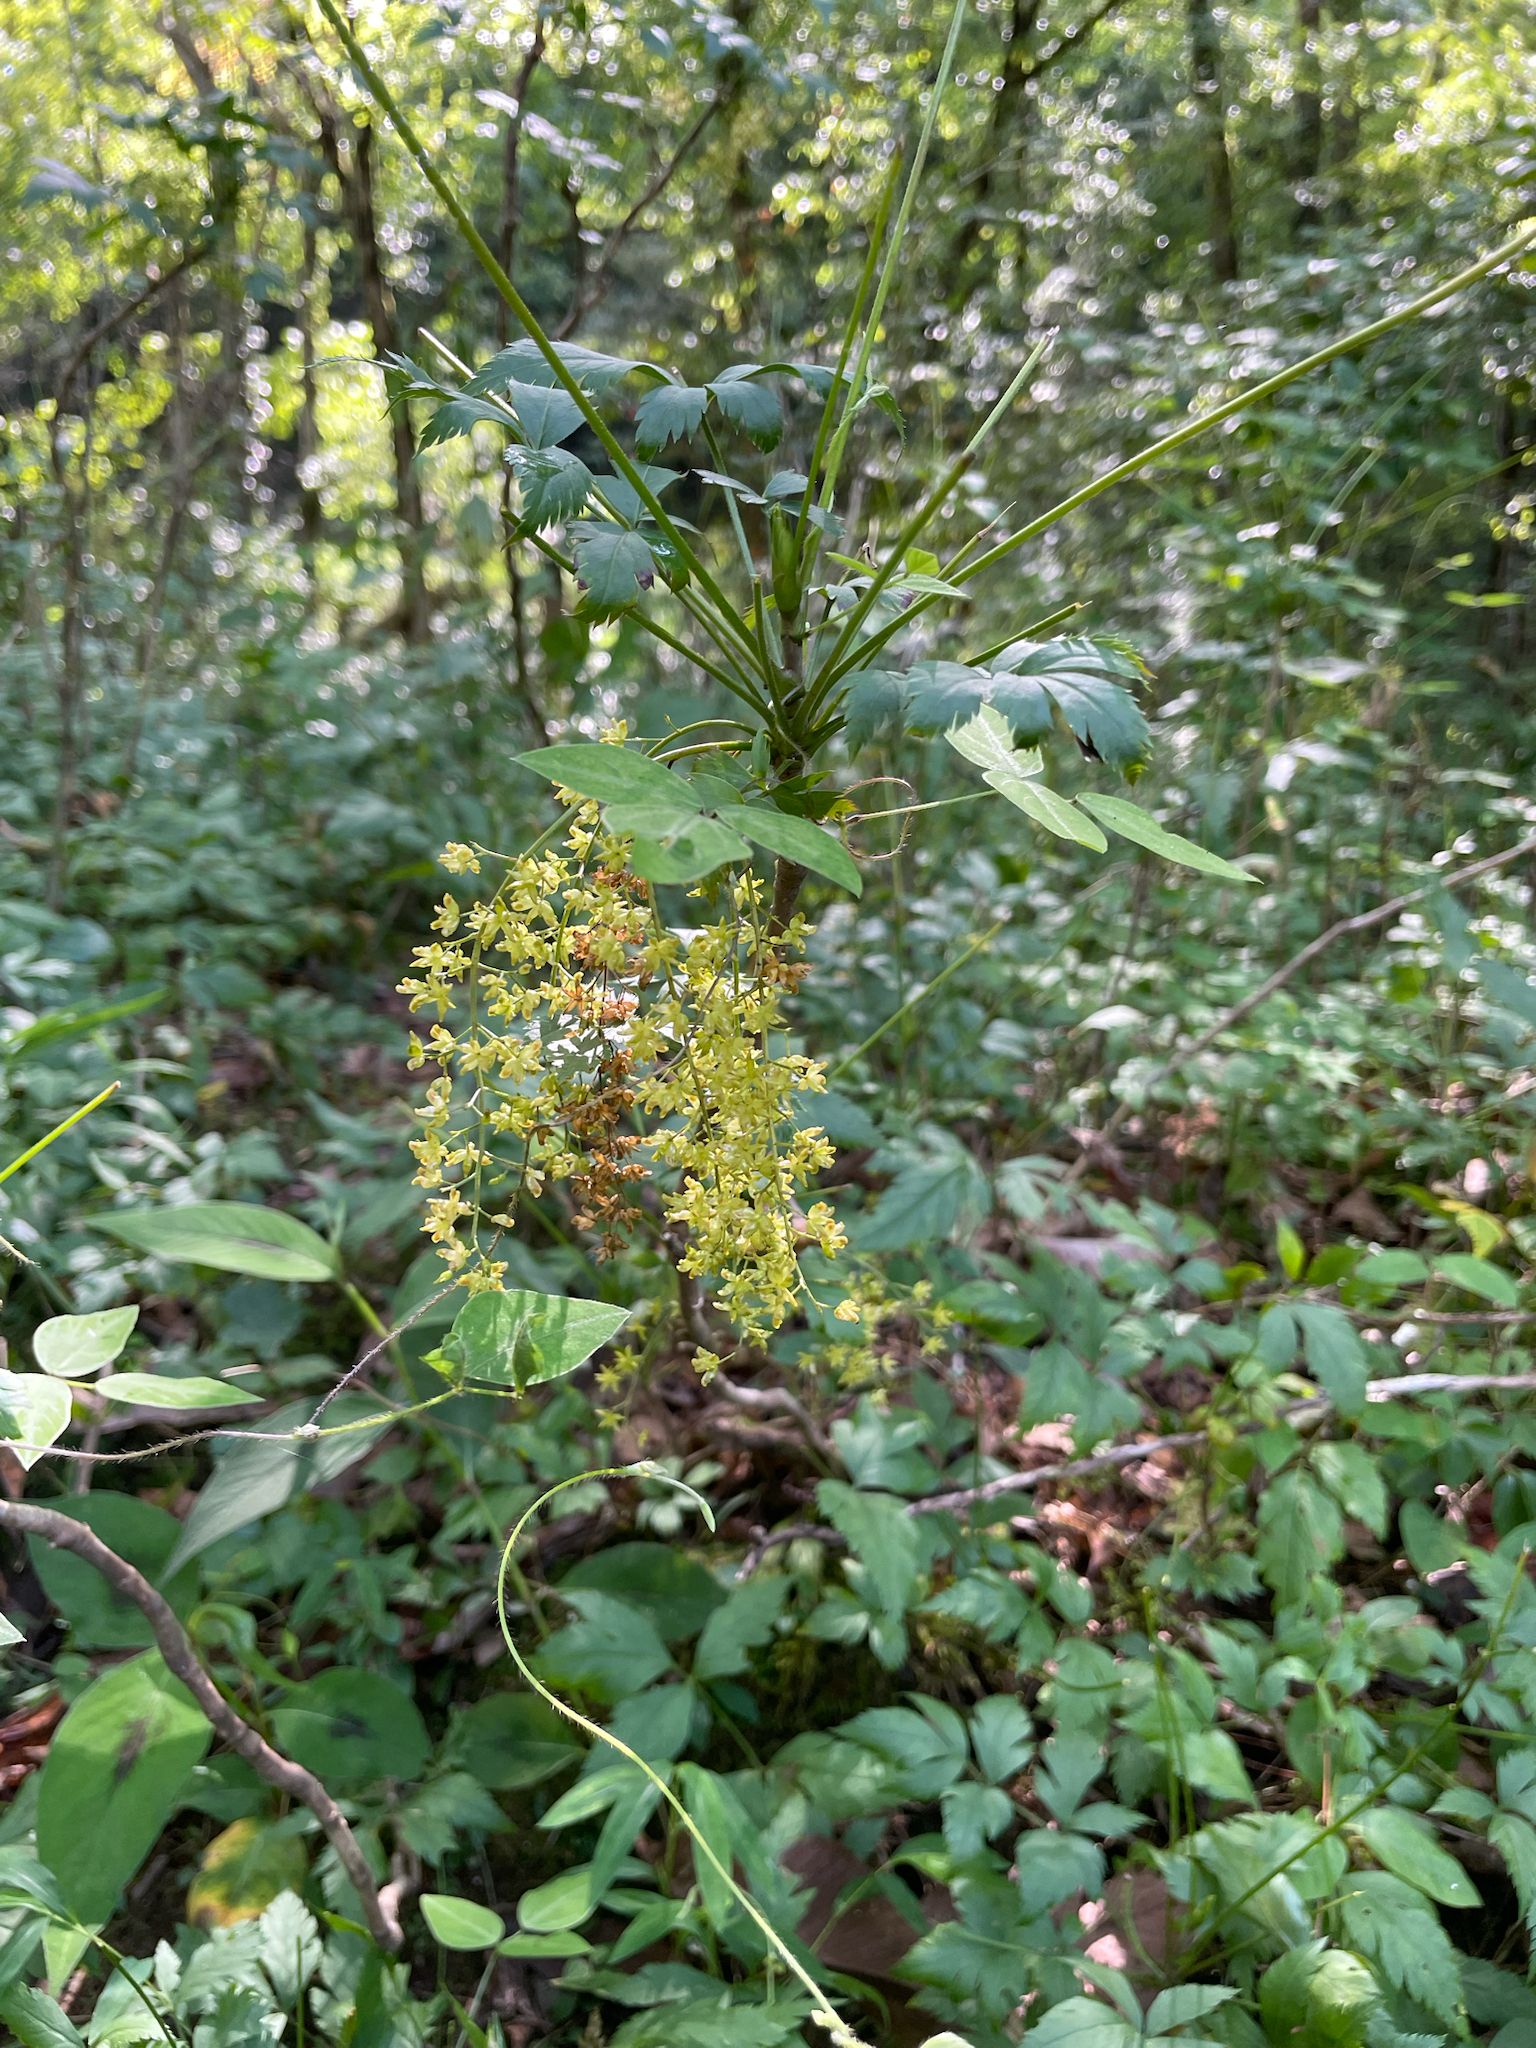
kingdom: Plantae
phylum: Tracheophyta
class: Magnoliopsida
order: Ranunculales
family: Ranunculaceae
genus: Xanthorhiza
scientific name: Xanthorhiza simplicissima
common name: Yellowroot
